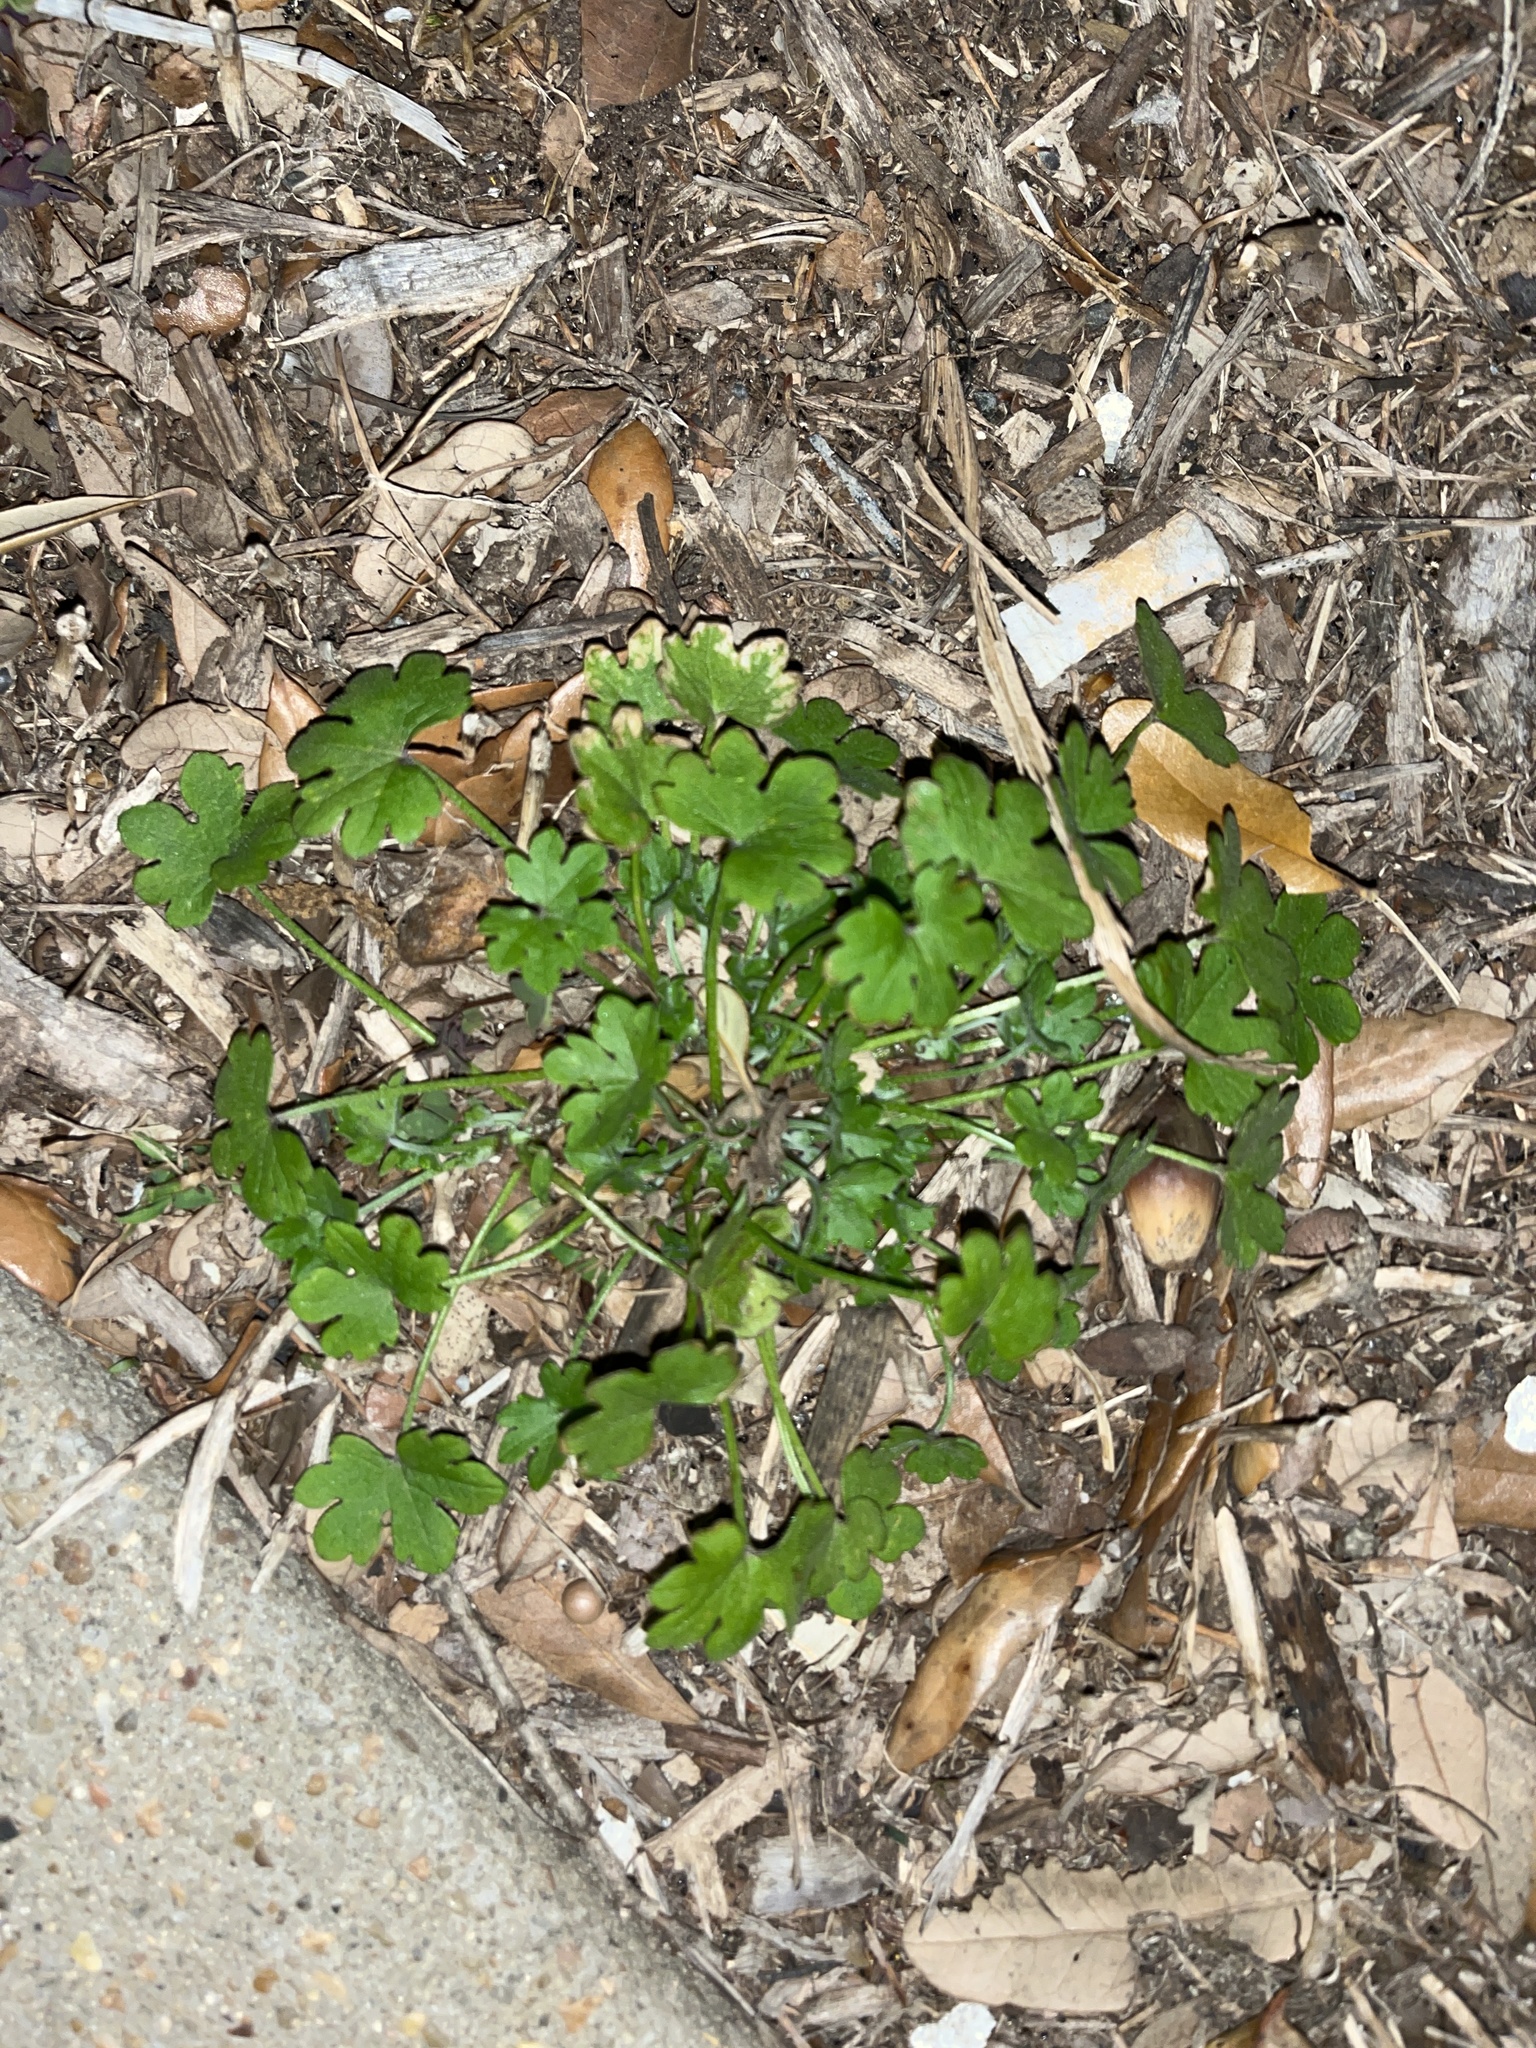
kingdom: Plantae
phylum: Tracheophyta
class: Magnoliopsida
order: Apiales
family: Apiaceae
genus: Bowlesia
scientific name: Bowlesia incana
